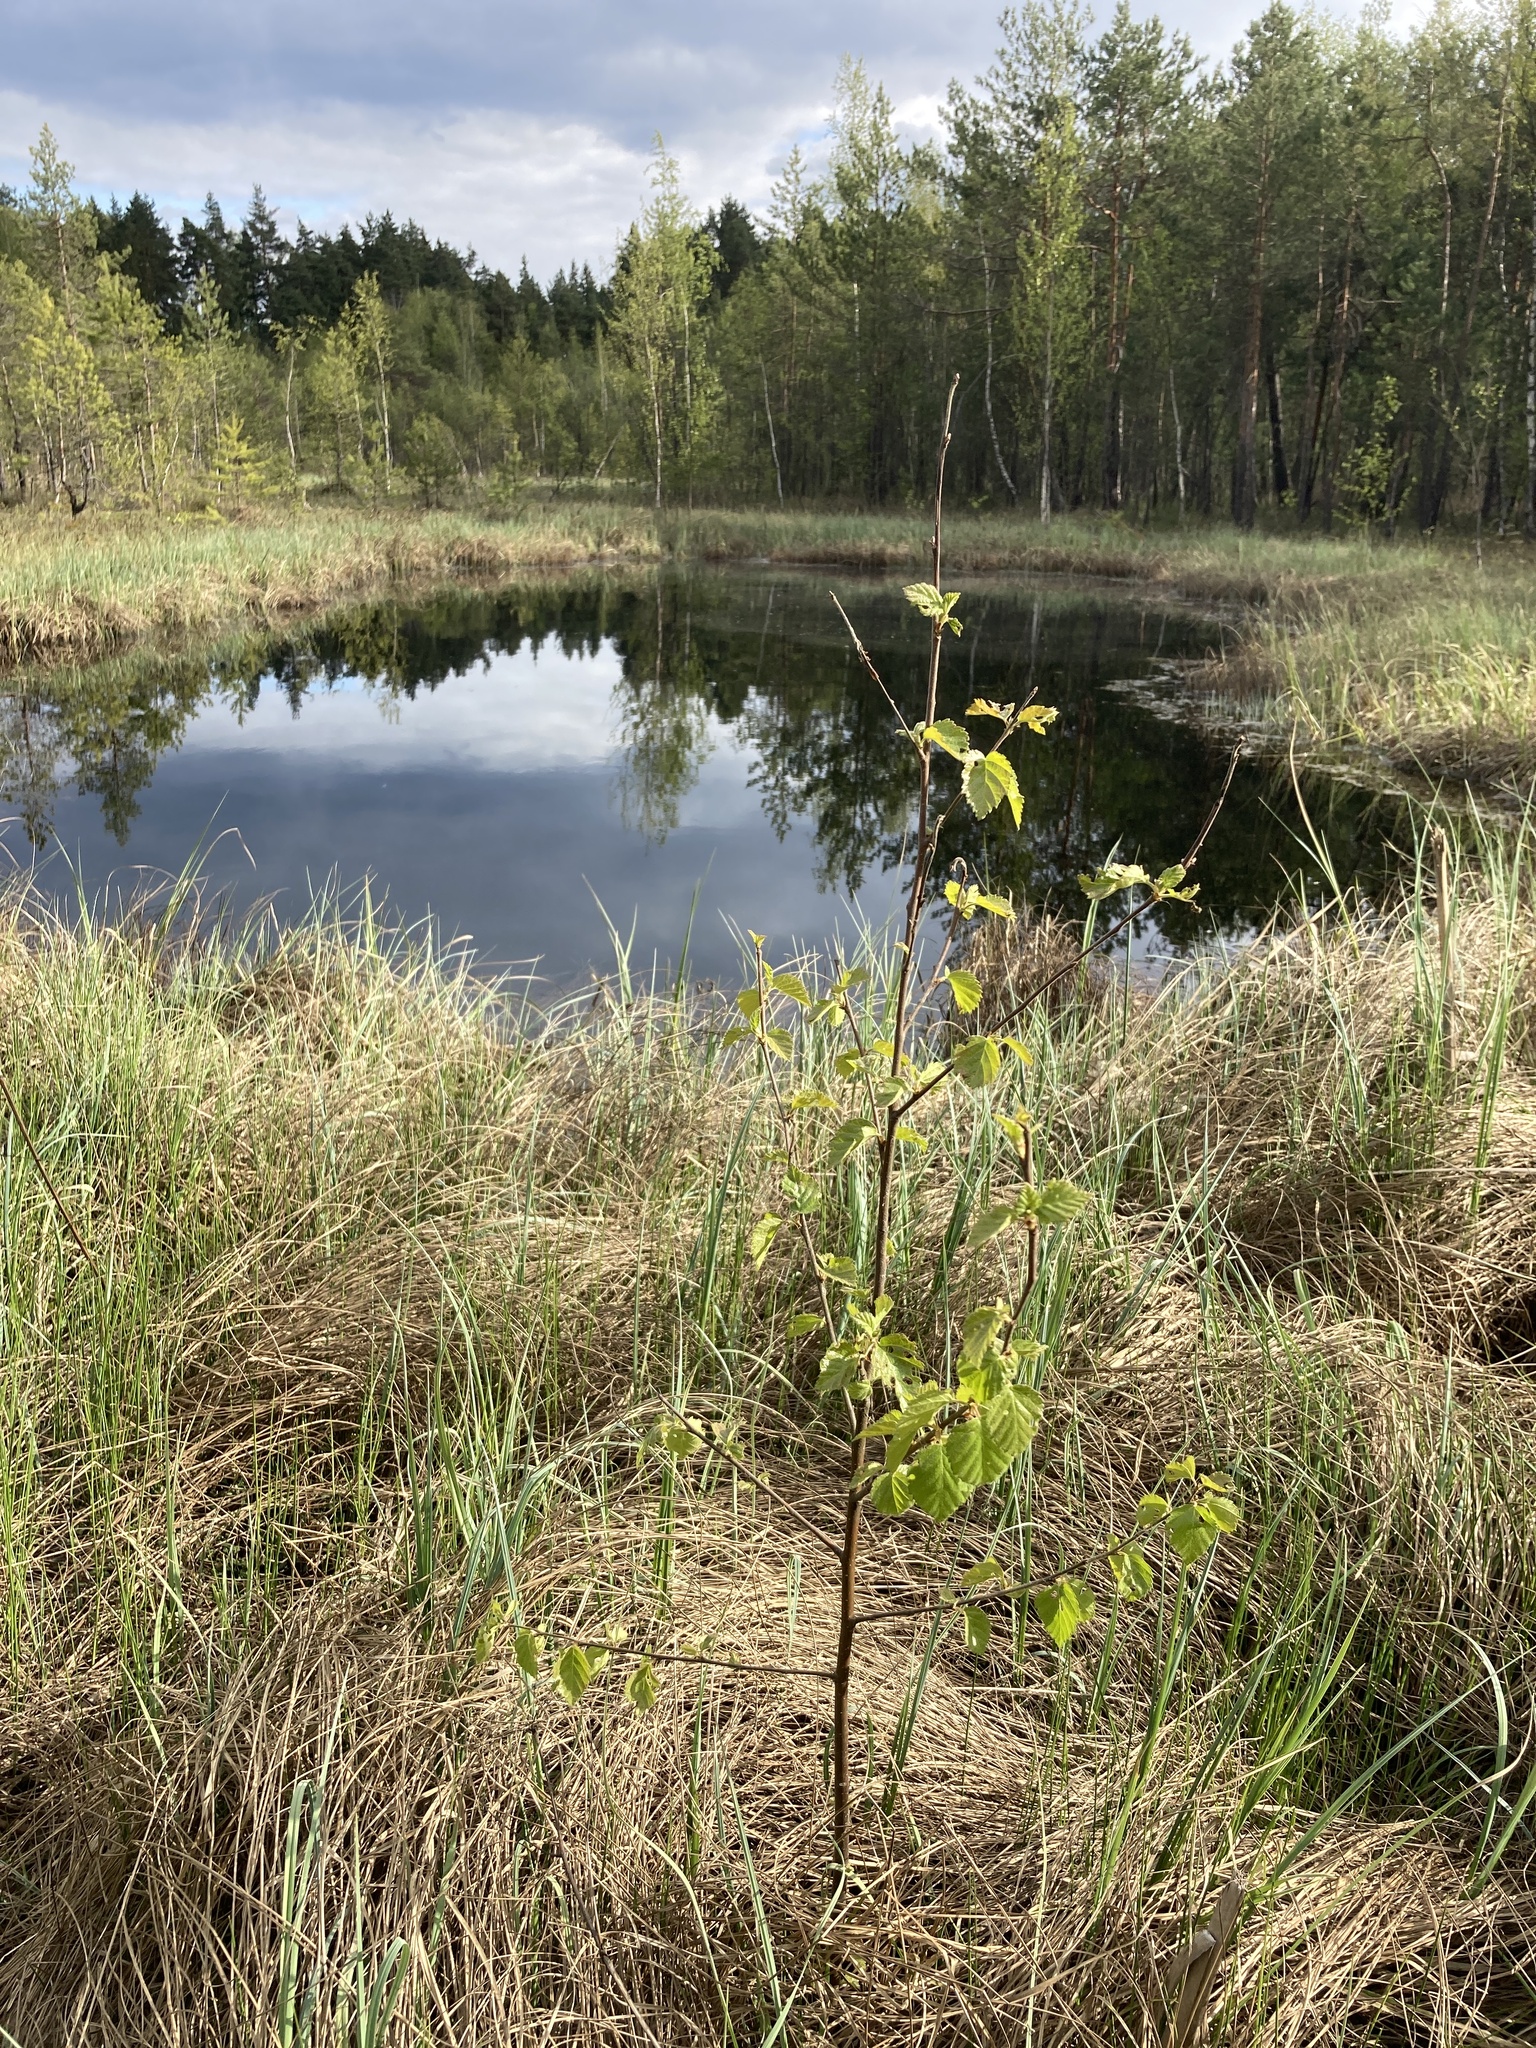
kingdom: Plantae
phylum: Tracheophyta
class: Magnoliopsida
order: Fagales
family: Betulaceae
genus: Betula
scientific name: Betula pubescens
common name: Downy birch
